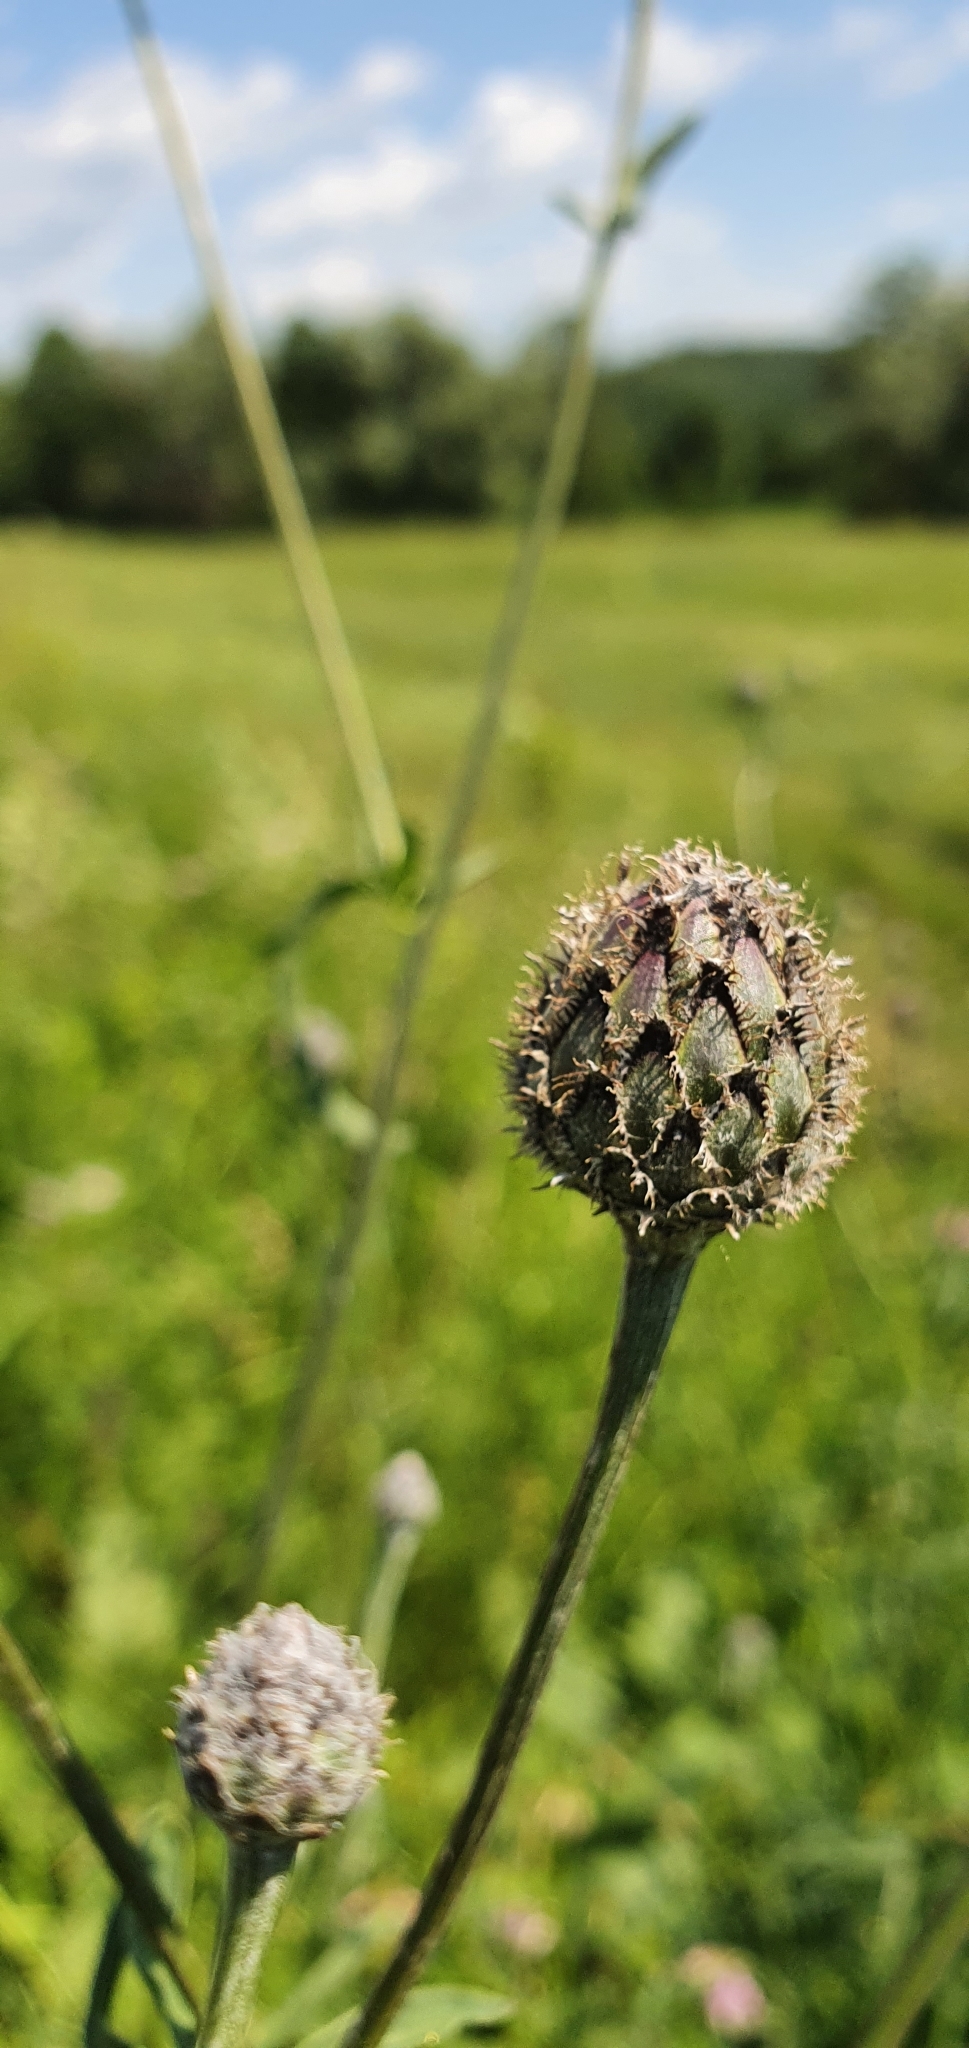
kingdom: Plantae
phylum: Tracheophyta
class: Magnoliopsida
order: Asterales
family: Asteraceae
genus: Centaurea
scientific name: Centaurea scabiosa
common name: Greater knapweed
